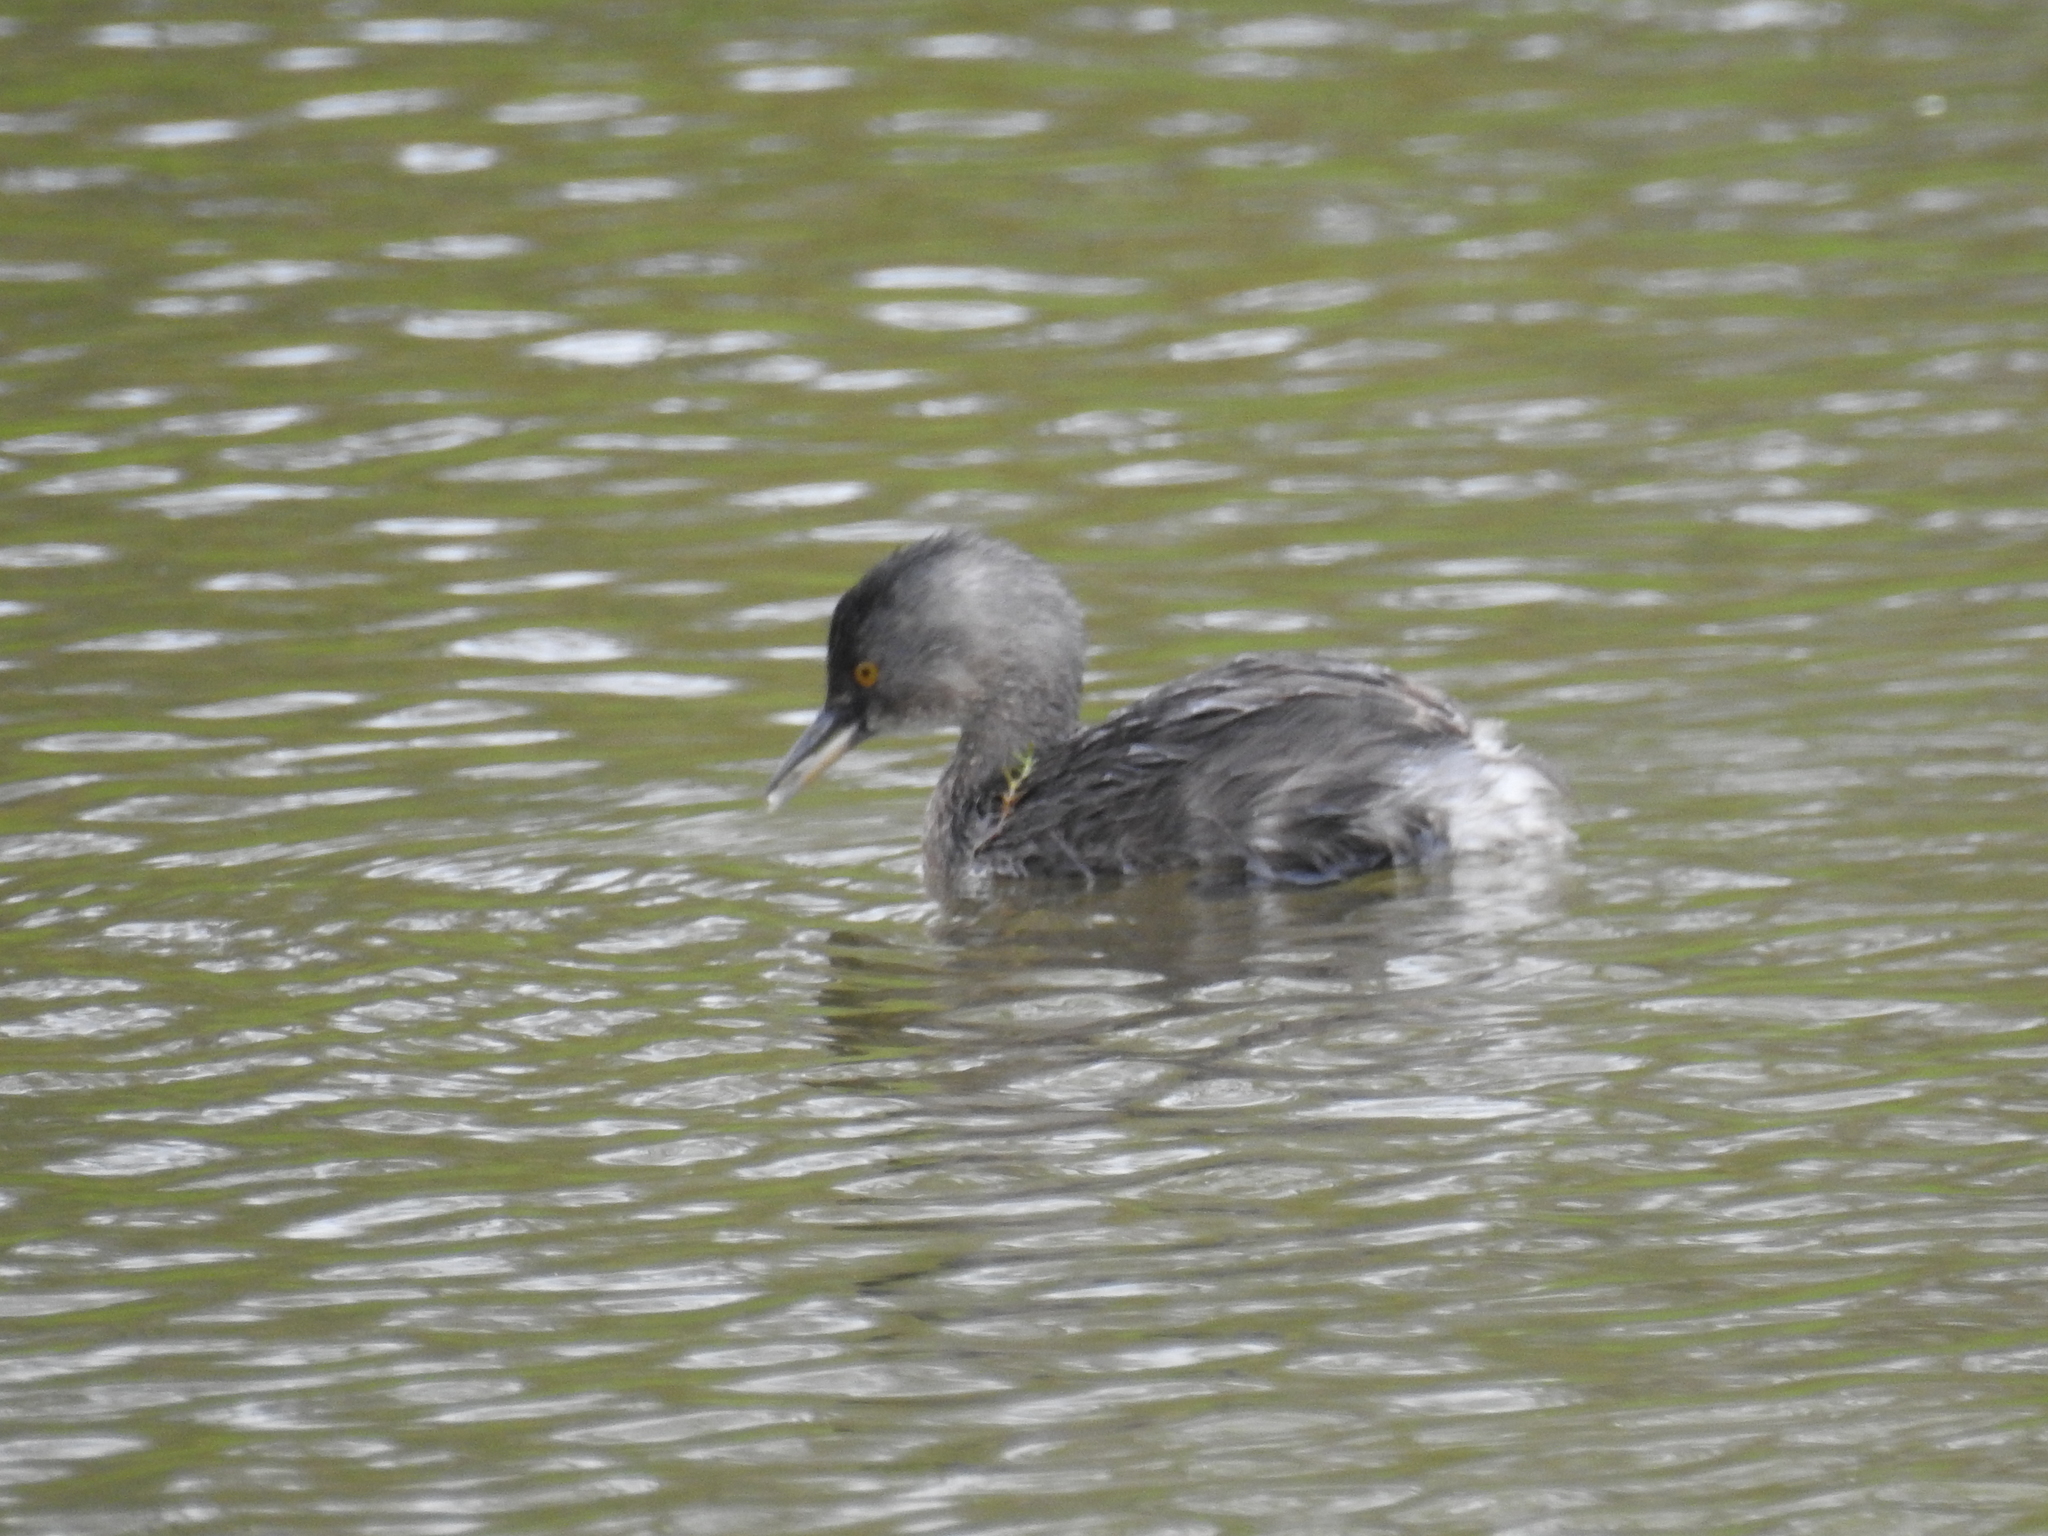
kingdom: Animalia
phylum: Chordata
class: Aves
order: Podicipediformes
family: Podicipedidae
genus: Tachybaptus
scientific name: Tachybaptus dominicus
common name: Least grebe
